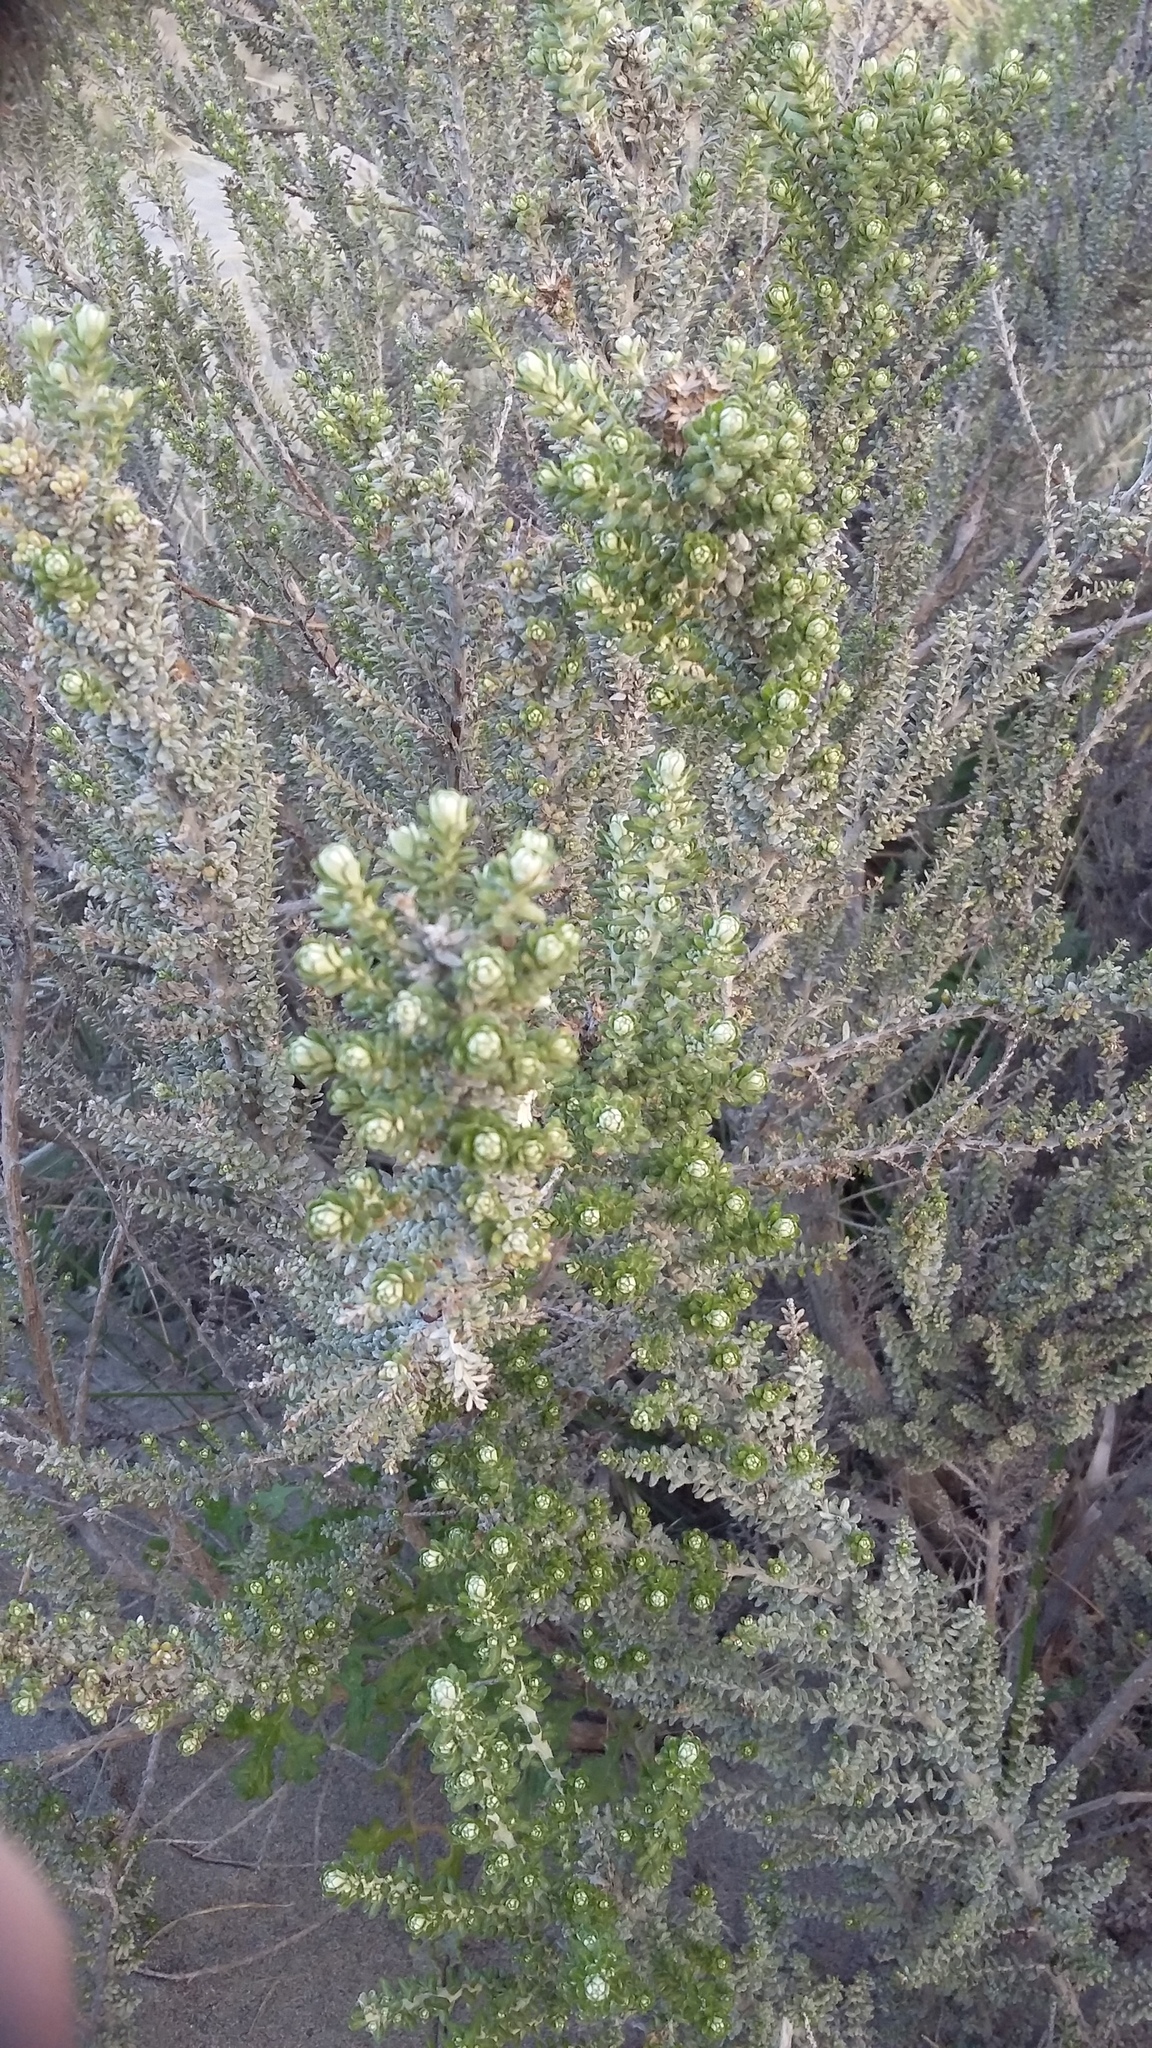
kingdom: Plantae
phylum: Tracheophyta
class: Magnoliopsida
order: Asterales
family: Asteraceae
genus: Ozothamnus
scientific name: Ozothamnus leptophyllus
